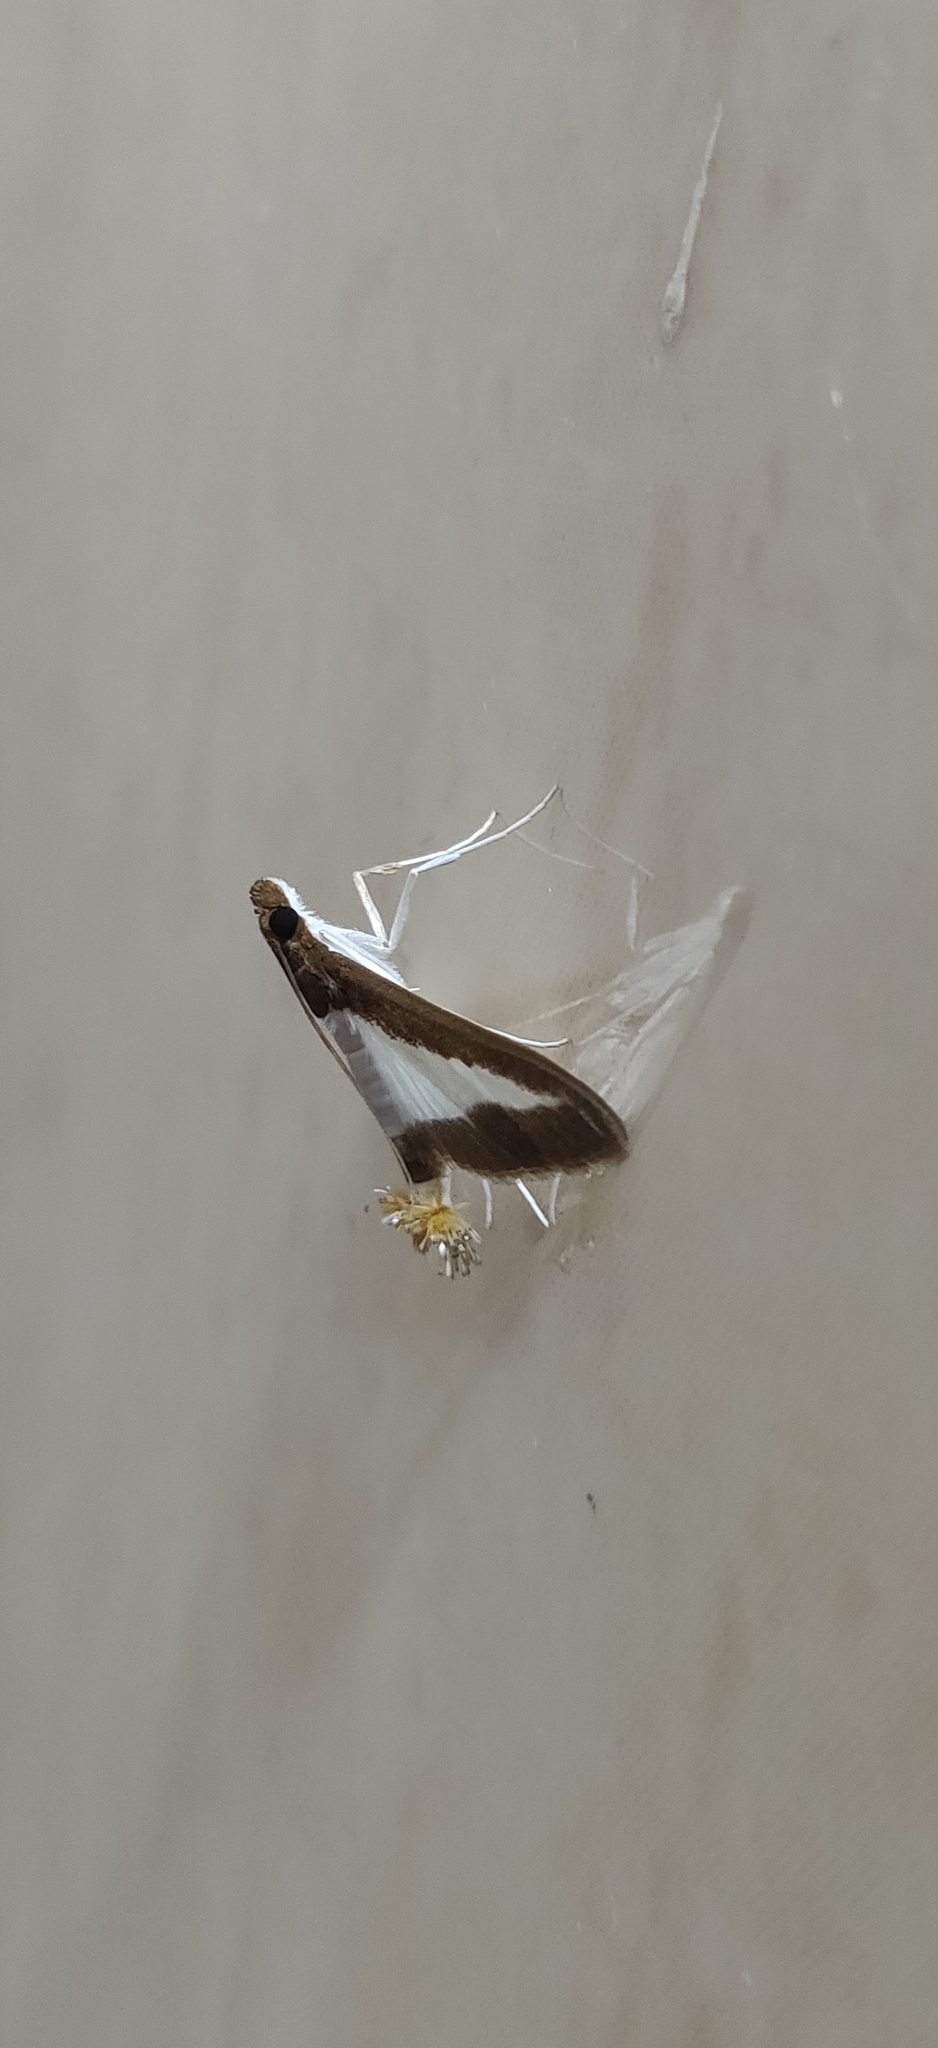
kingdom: Animalia
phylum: Arthropoda
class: Insecta
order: Lepidoptera
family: Crambidae
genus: Diaphania
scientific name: Diaphania indica
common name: Cucumber moth
